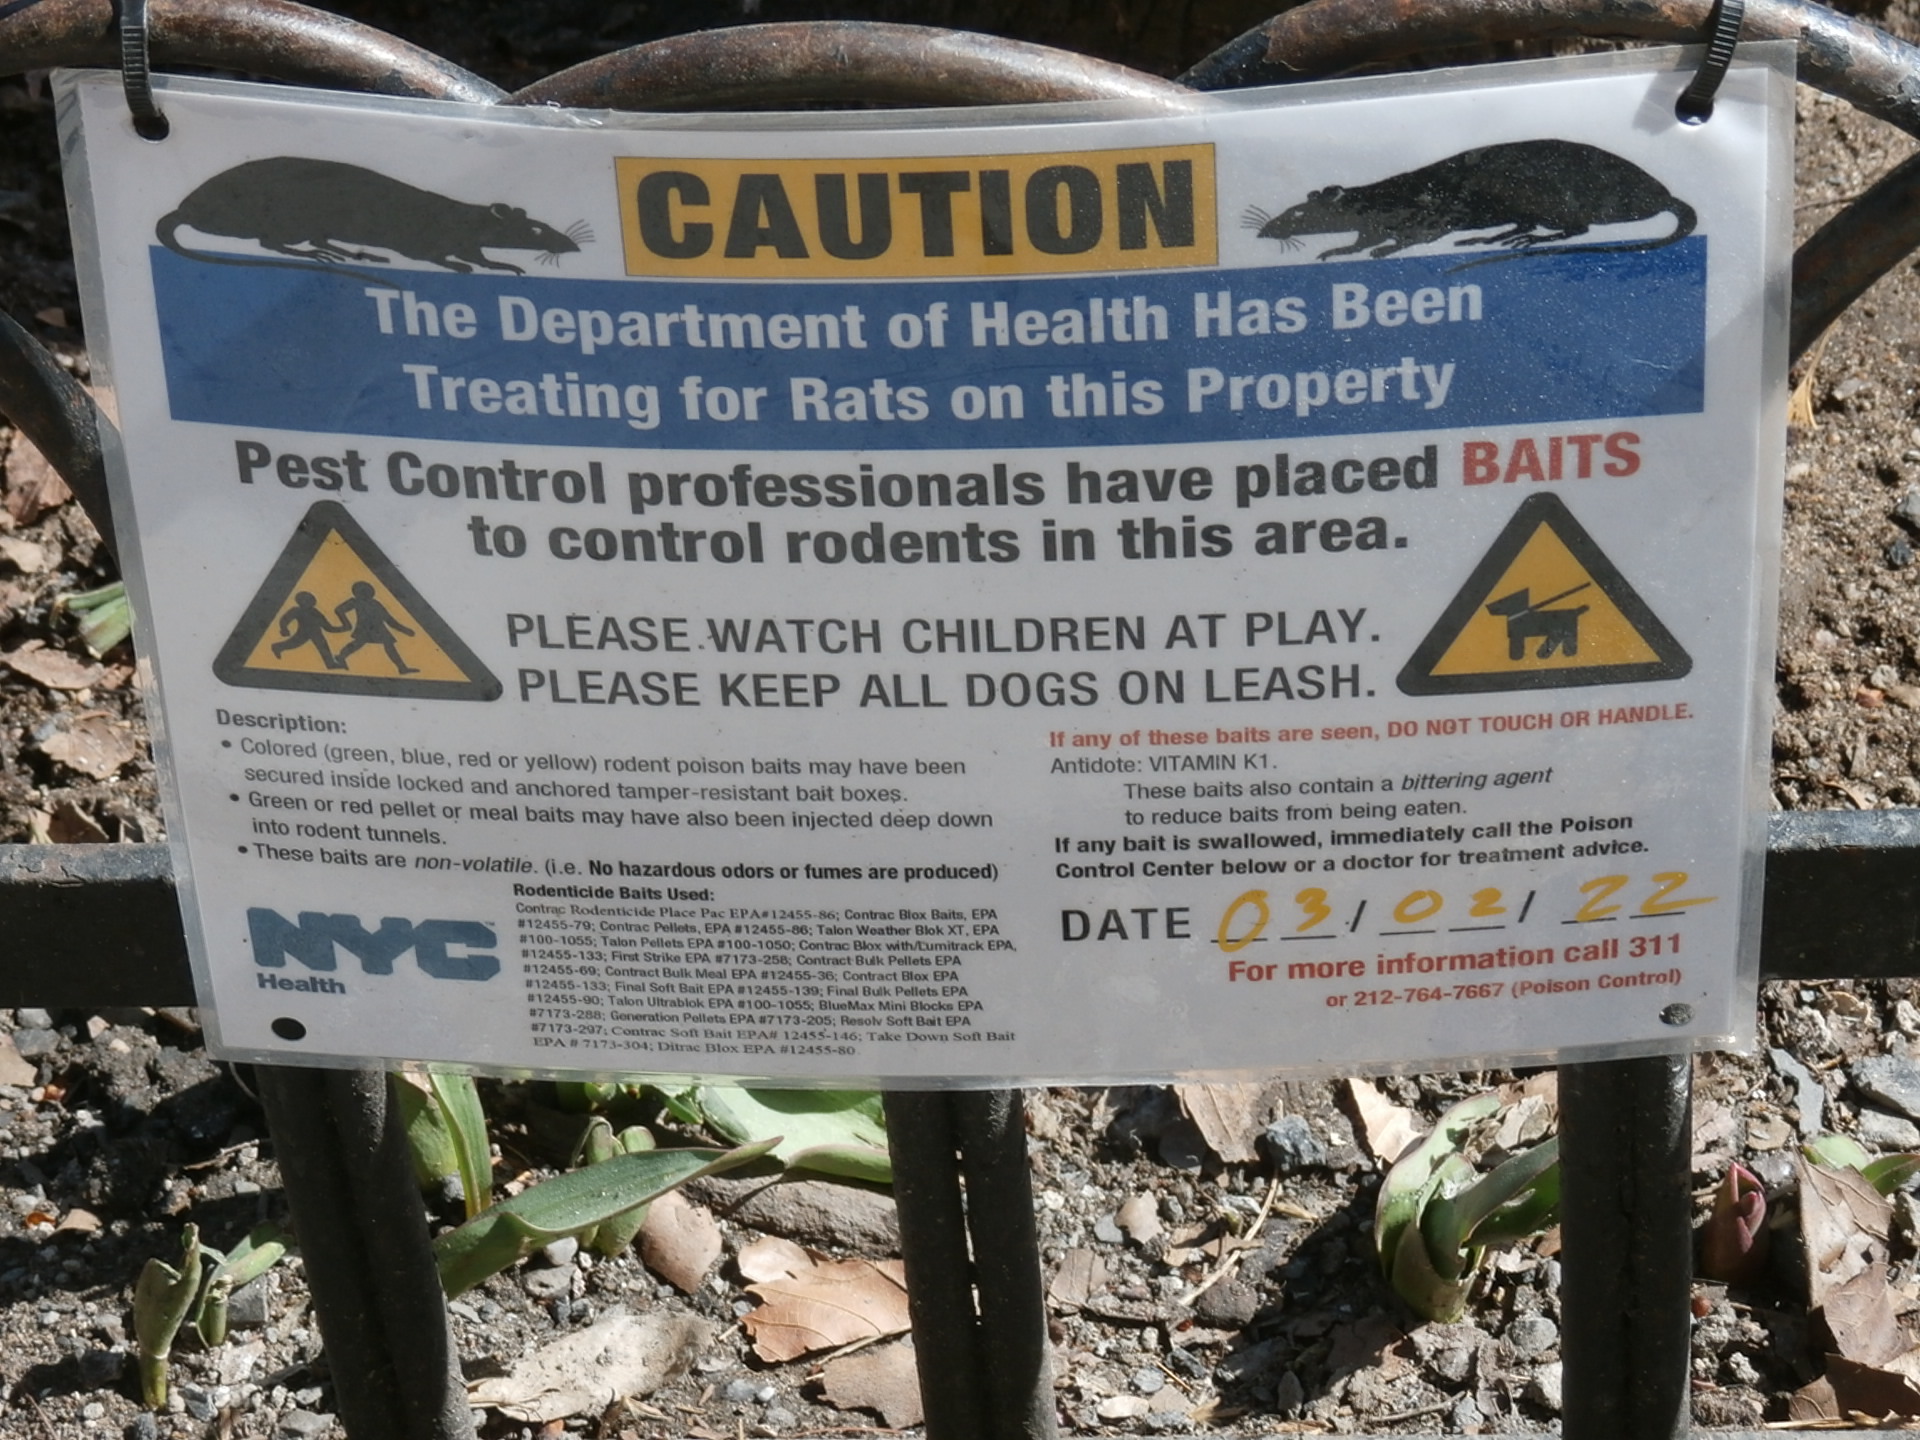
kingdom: Animalia
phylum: Chordata
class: Mammalia
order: Rodentia
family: Muridae
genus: Rattus
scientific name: Rattus norvegicus
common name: Brown rat
